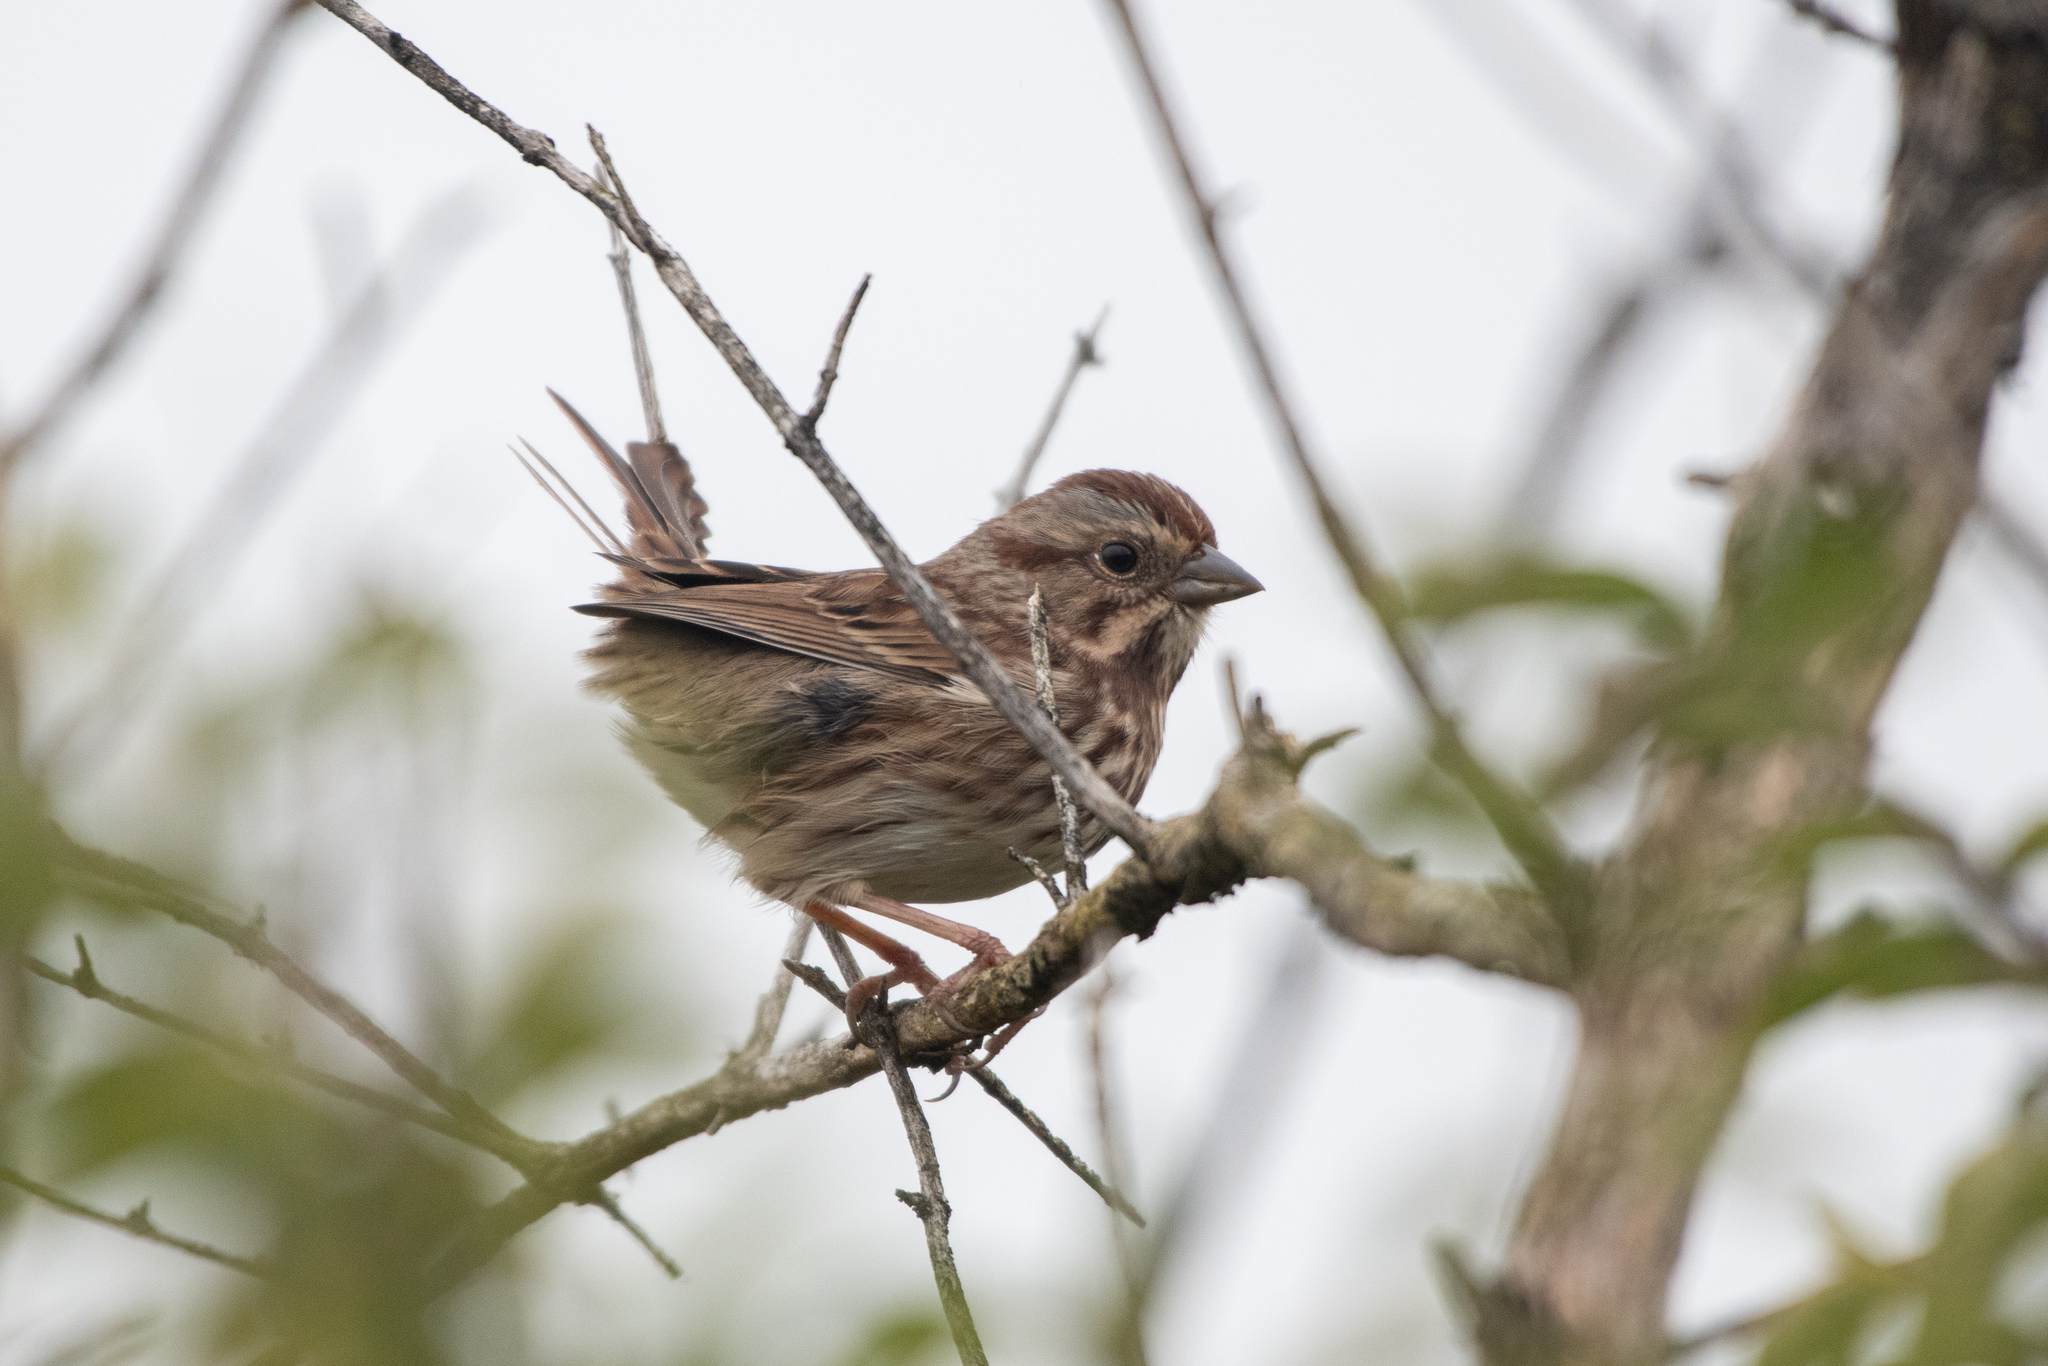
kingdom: Animalia
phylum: Chordata
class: Aves
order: Passeriformes
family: Passerellidae
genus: Melospiza
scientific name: Melospiza melodia
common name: Song sparrow
